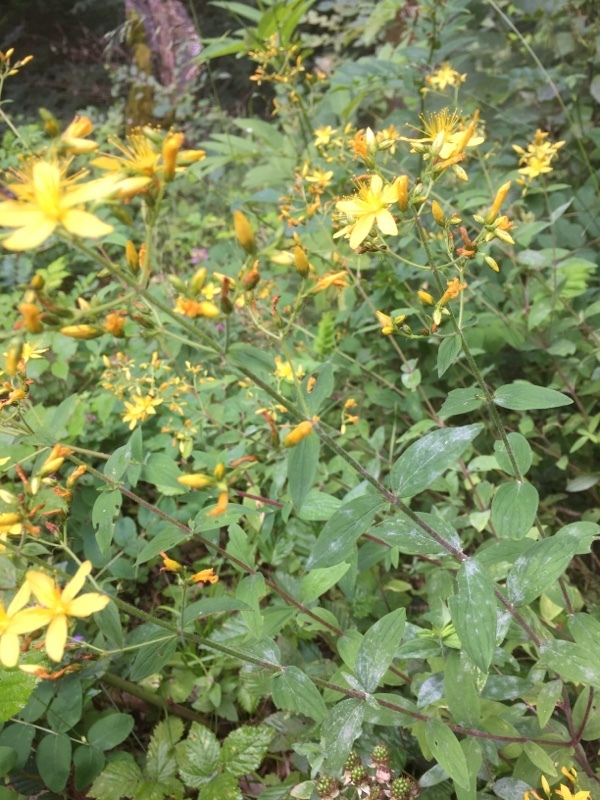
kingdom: Plantae
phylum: Tracheophyta
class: Magnoliopsida
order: Malpighiales
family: Hypericaceae
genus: Hypericum
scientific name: Hypericum hirsutum
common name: Hairy st. john's-wort
